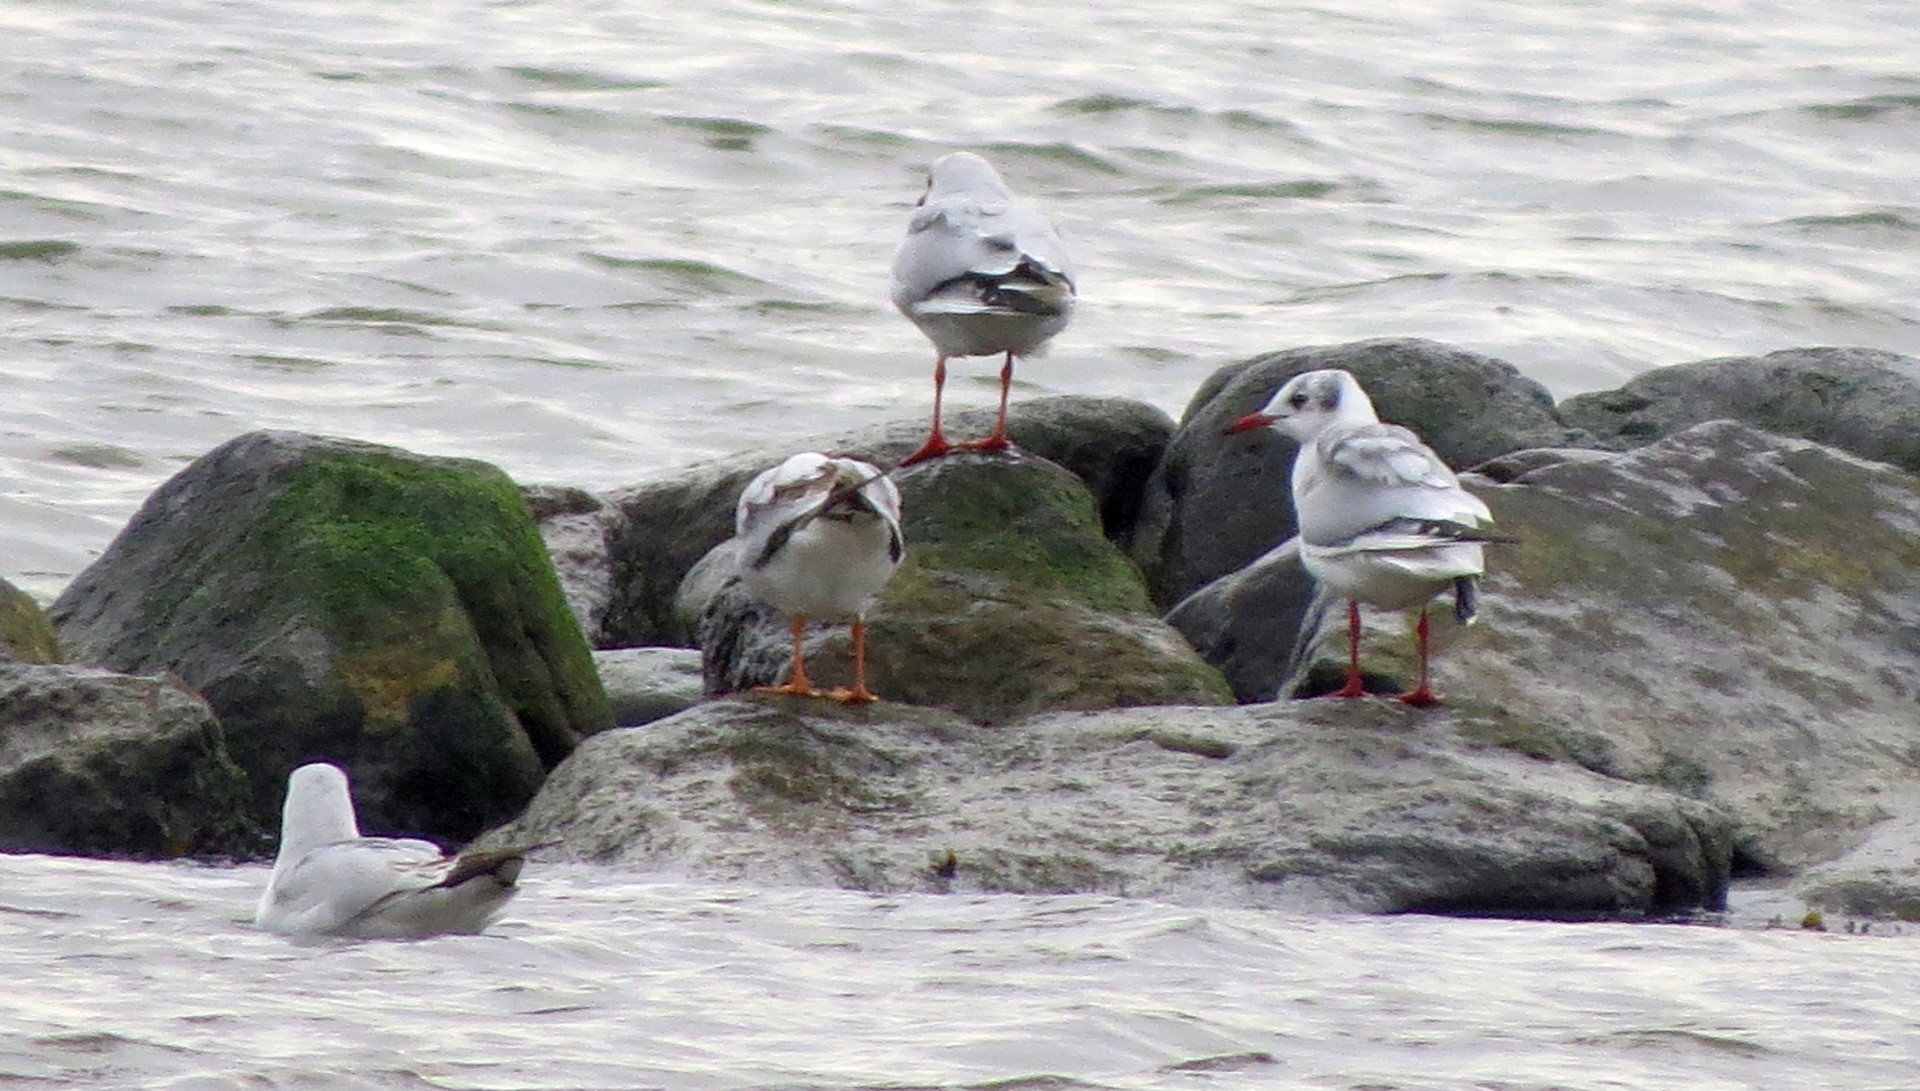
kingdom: Animalia
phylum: Chordata
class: Aves
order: Charadriiformes
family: Laridae
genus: Chroicocephalus
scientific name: Chroicocephalus ridibundus
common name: Black-headed gull
